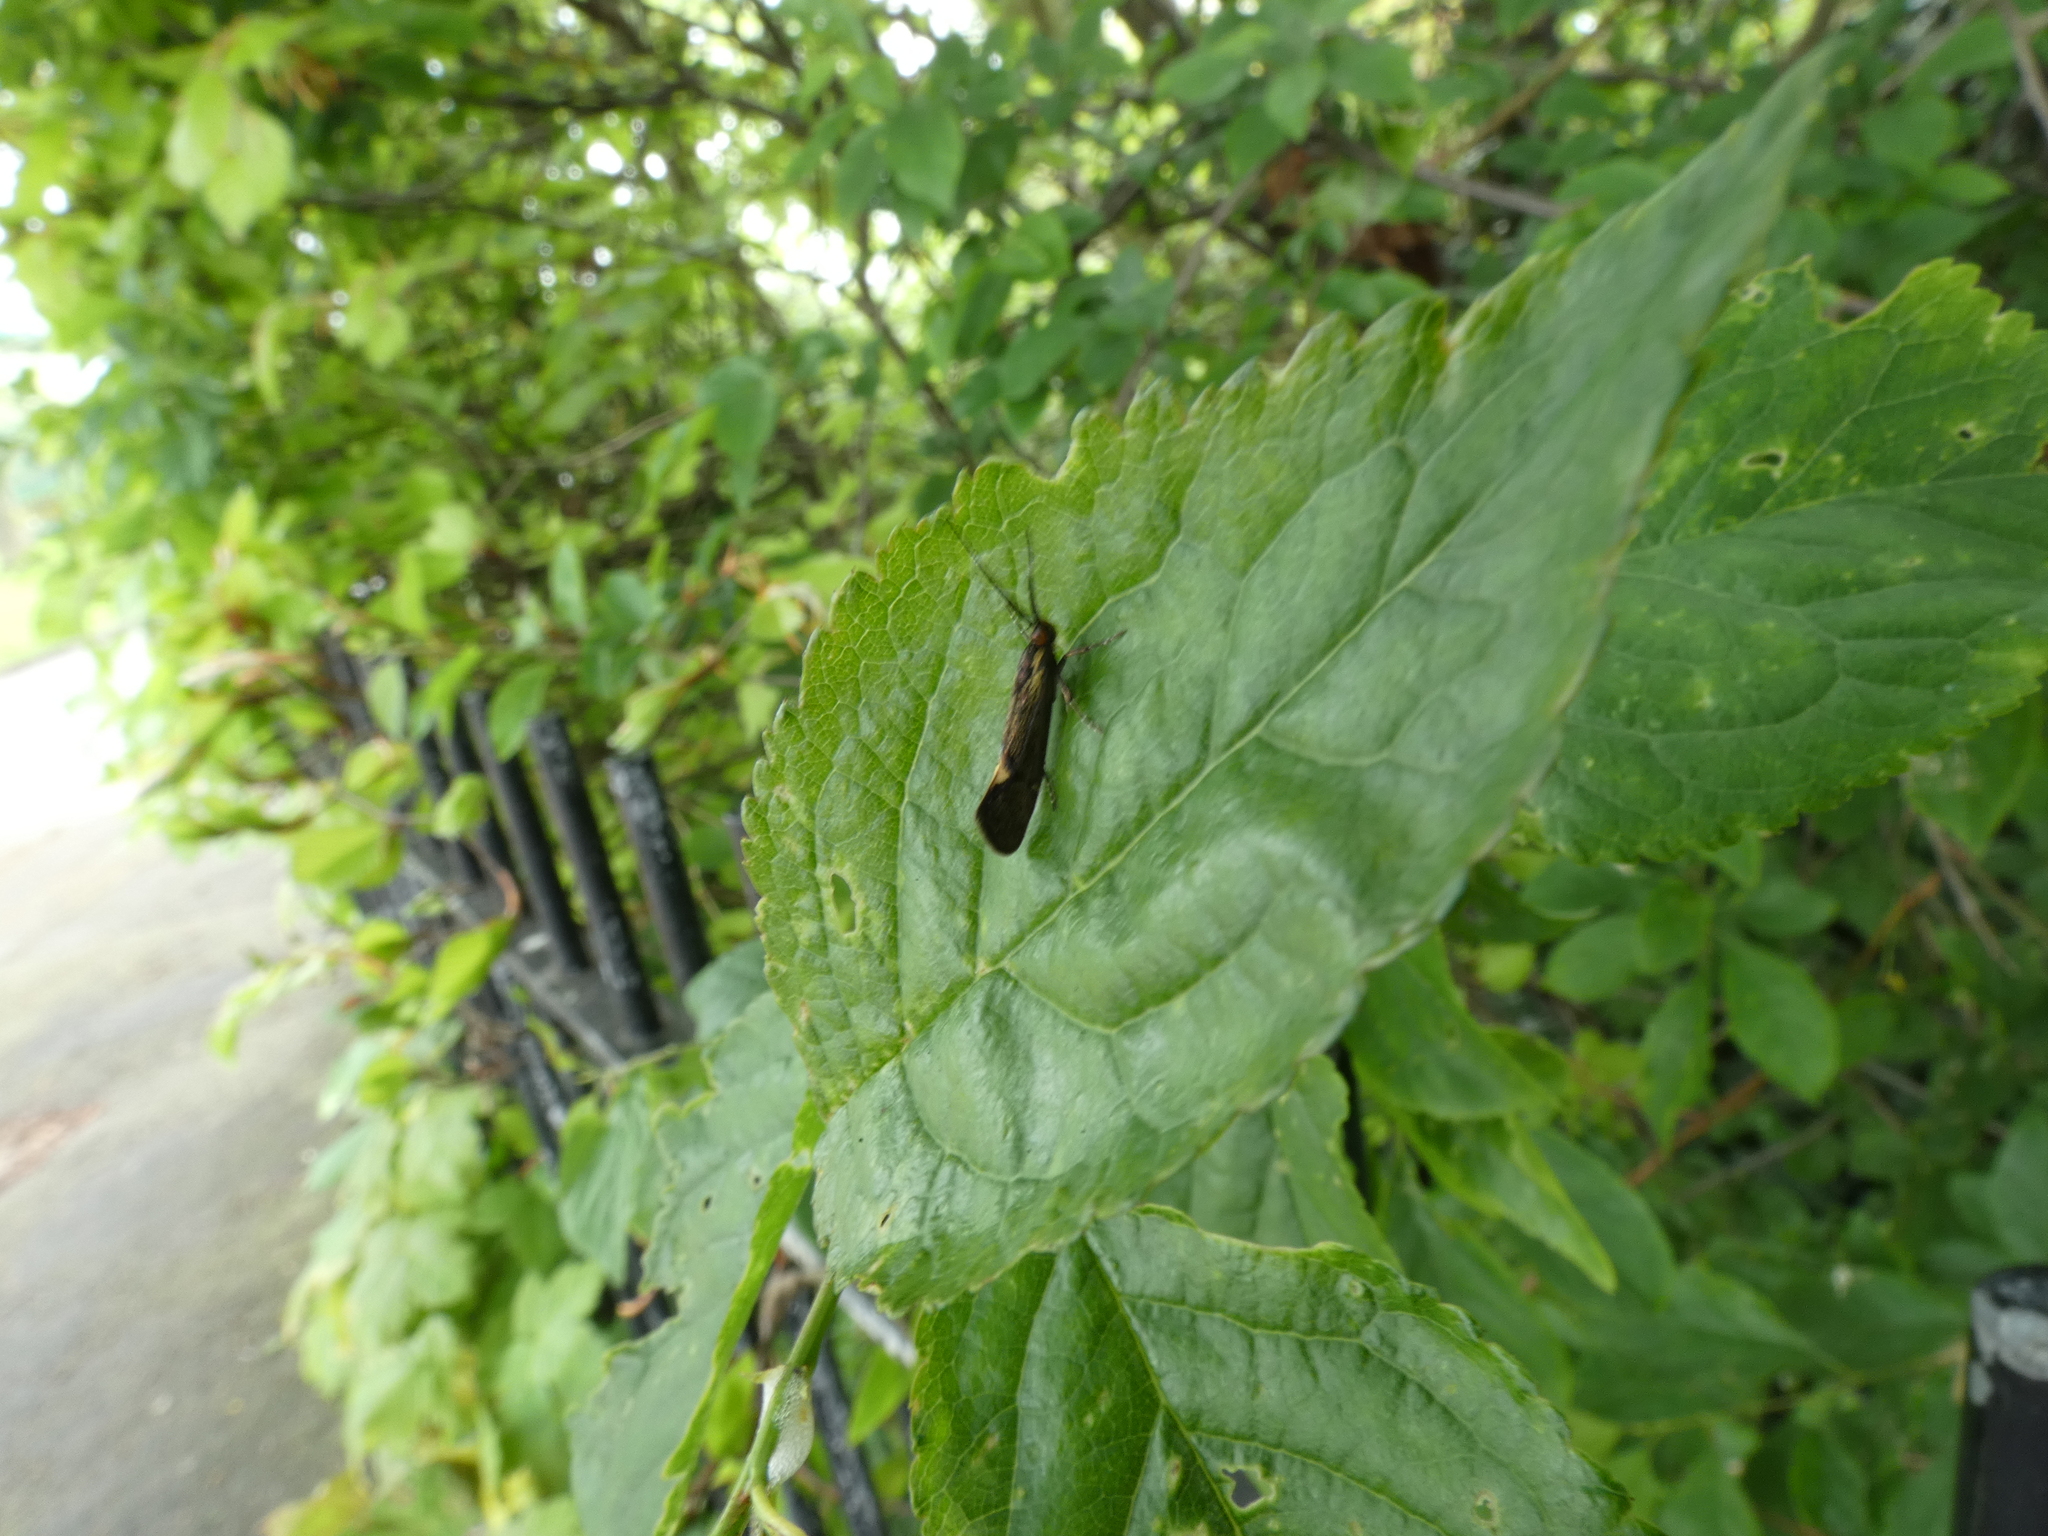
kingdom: Animalia
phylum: Arthropoda
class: Insecta
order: Lepidoptera
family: Oecophoridae
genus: Dafa
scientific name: Dafa Esperia sulphurella
